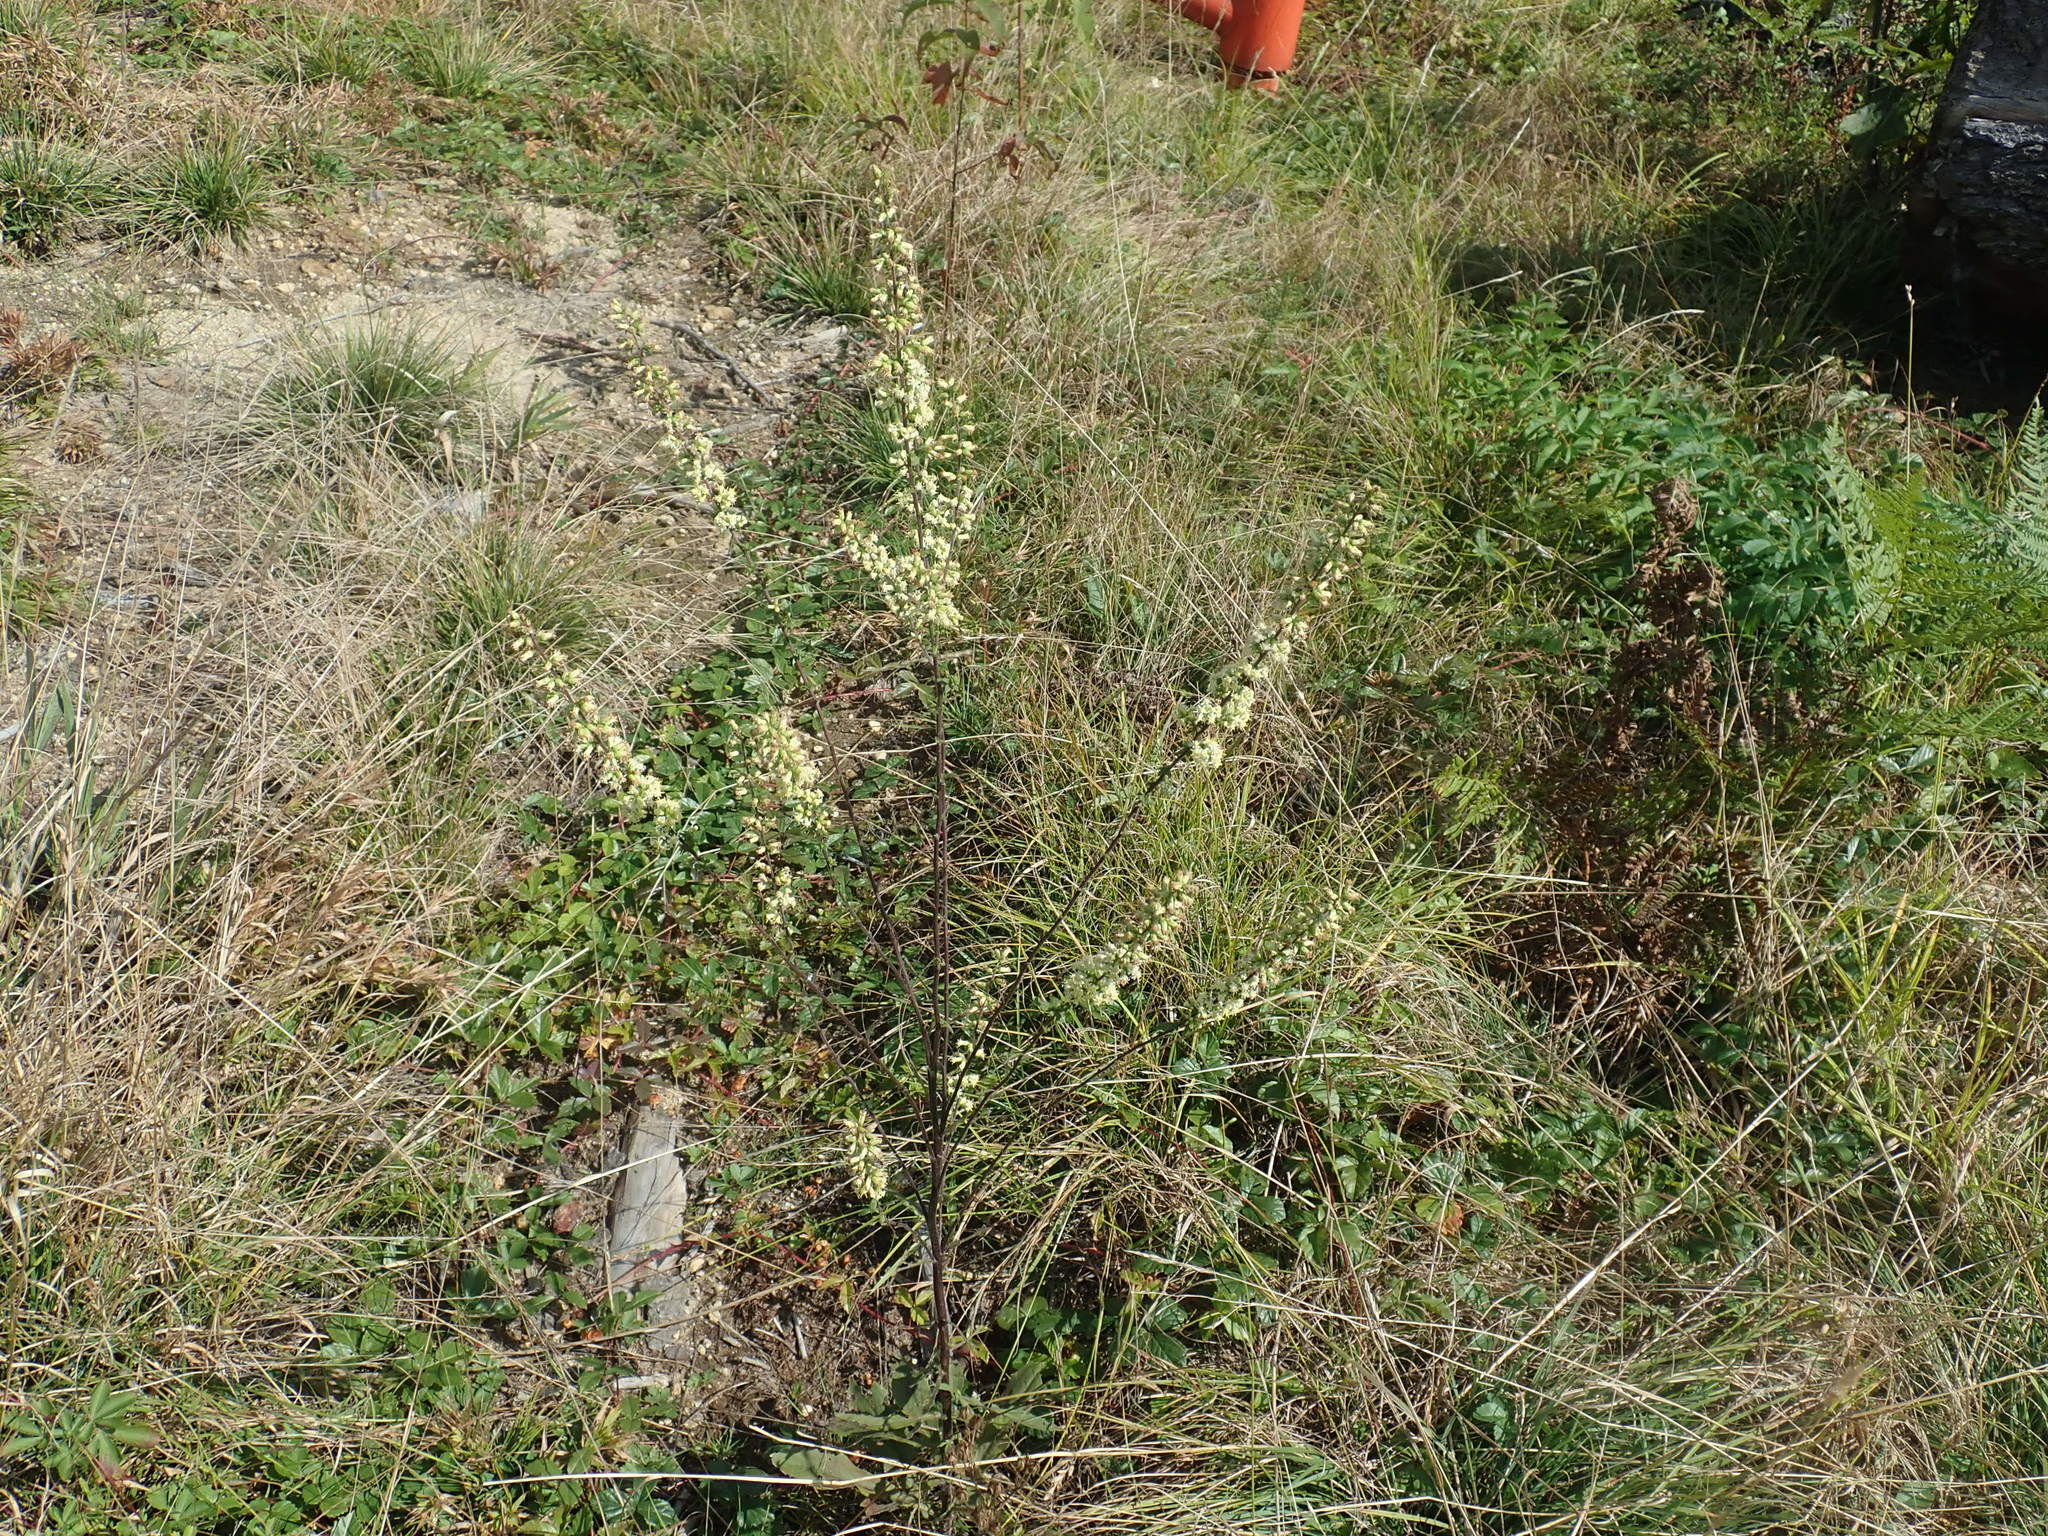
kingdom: Plantae
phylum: Tracheophyta
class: Magnoliopsida
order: Asterales
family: Asteraceae
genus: Solidago
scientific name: Solidago bicolor
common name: Silverrod
